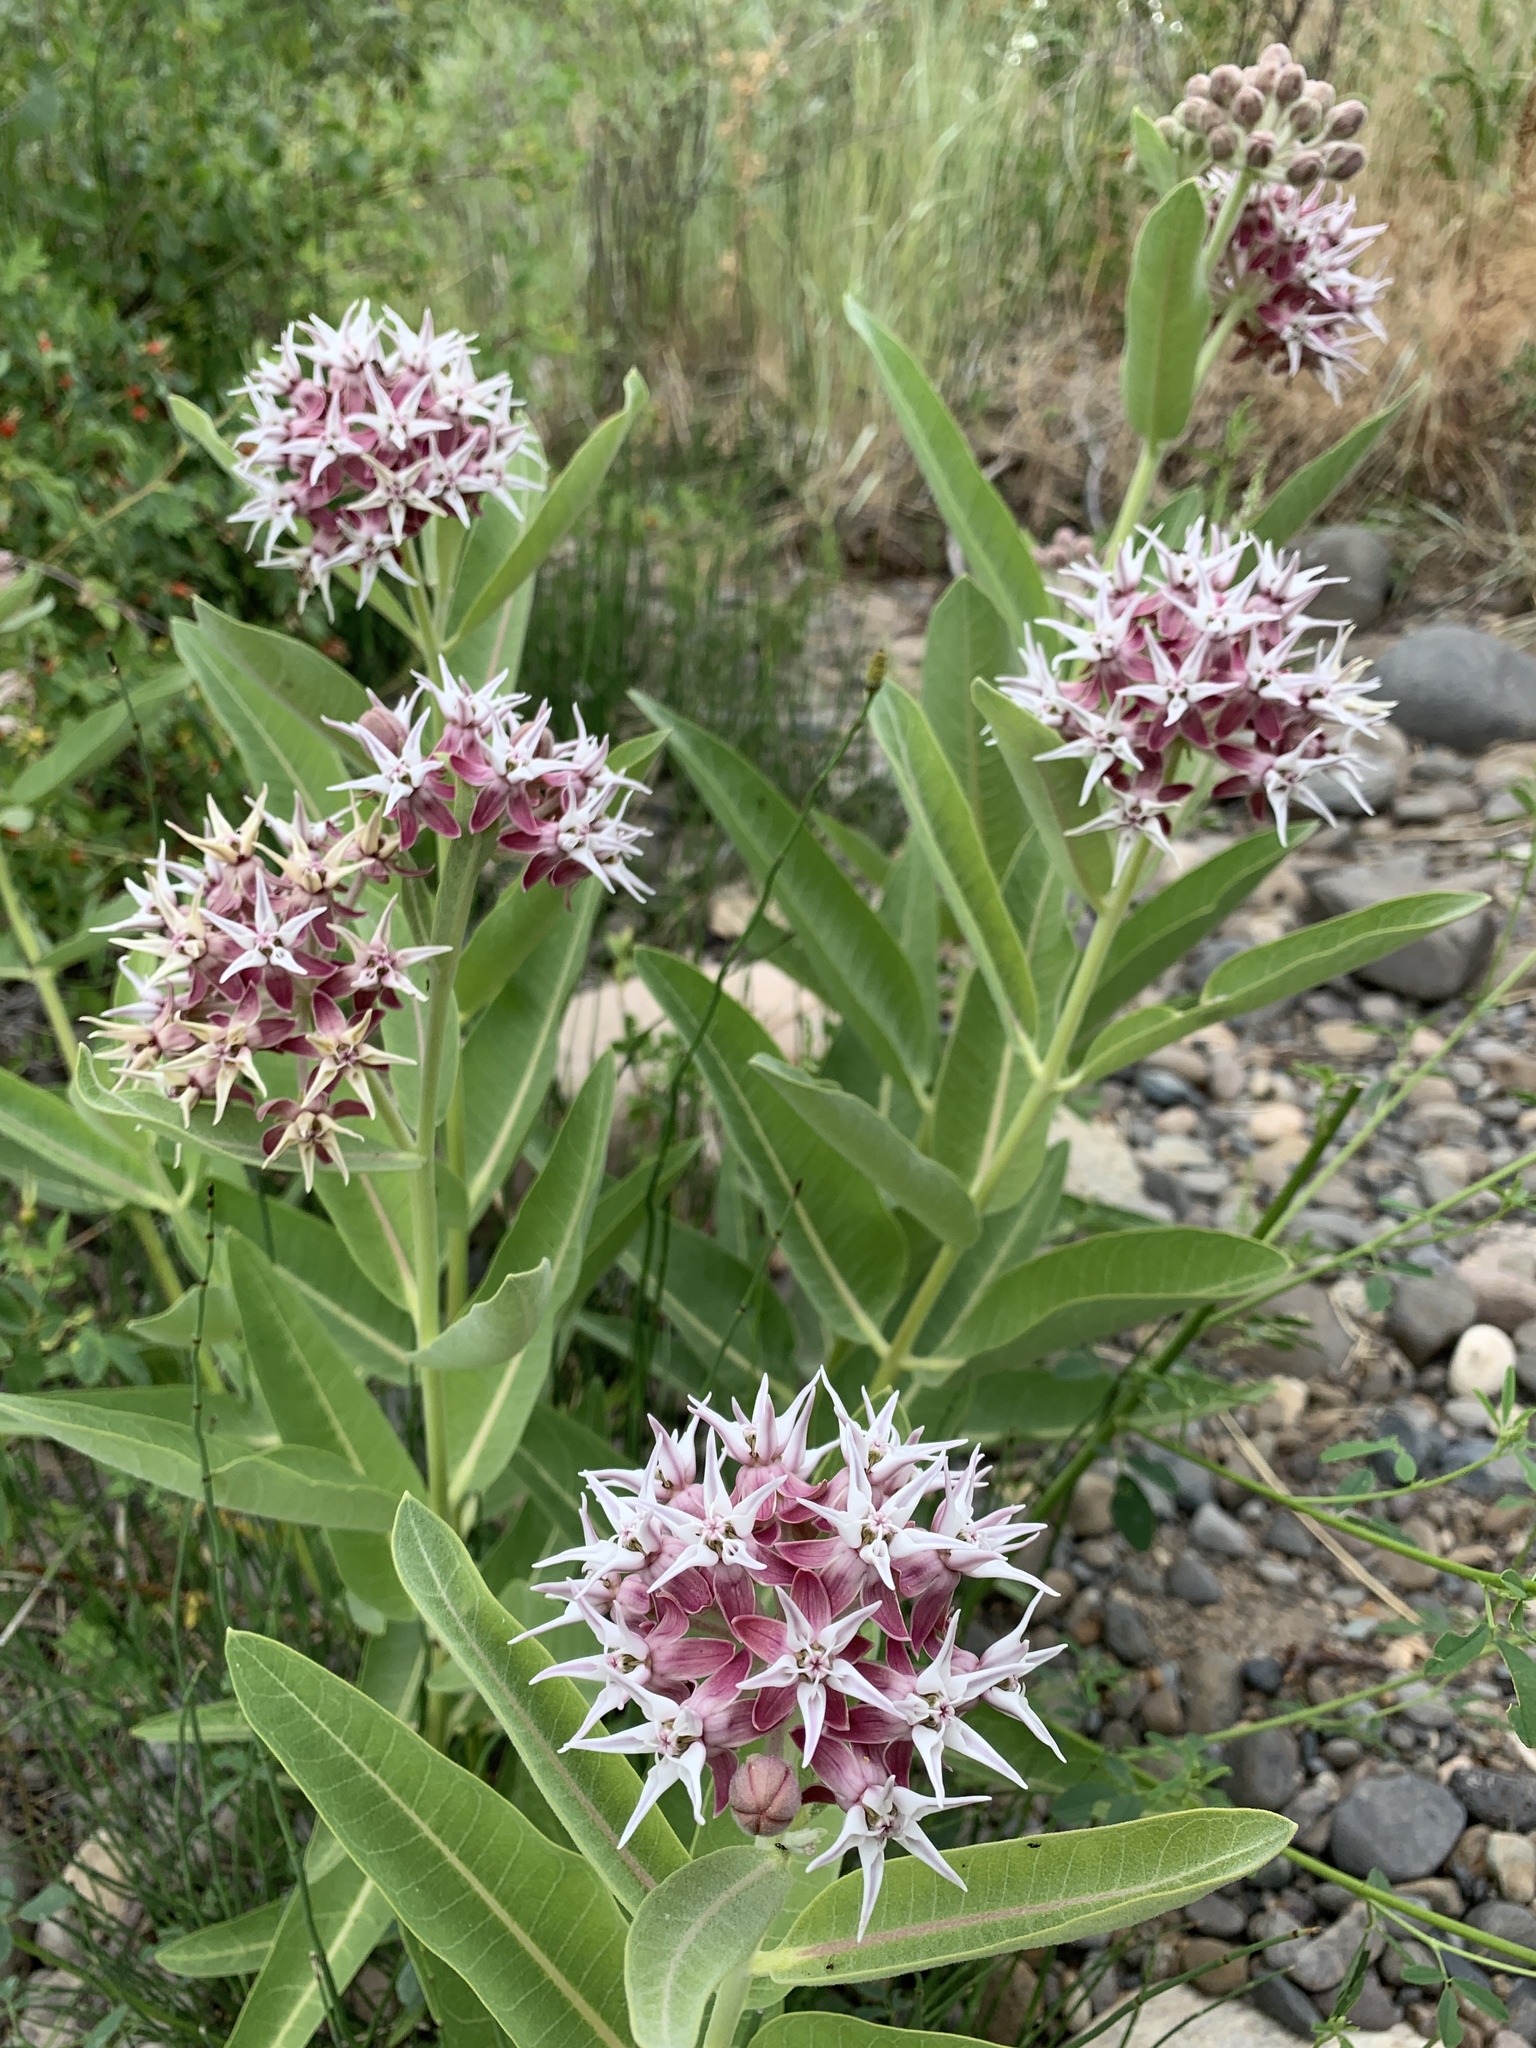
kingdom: Plantae
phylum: Tracheophyta
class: Magnoliopsida
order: Gentianales
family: Apocynaceae
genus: Asclepias
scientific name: Asclepias speciosa
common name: Showy milkweed
